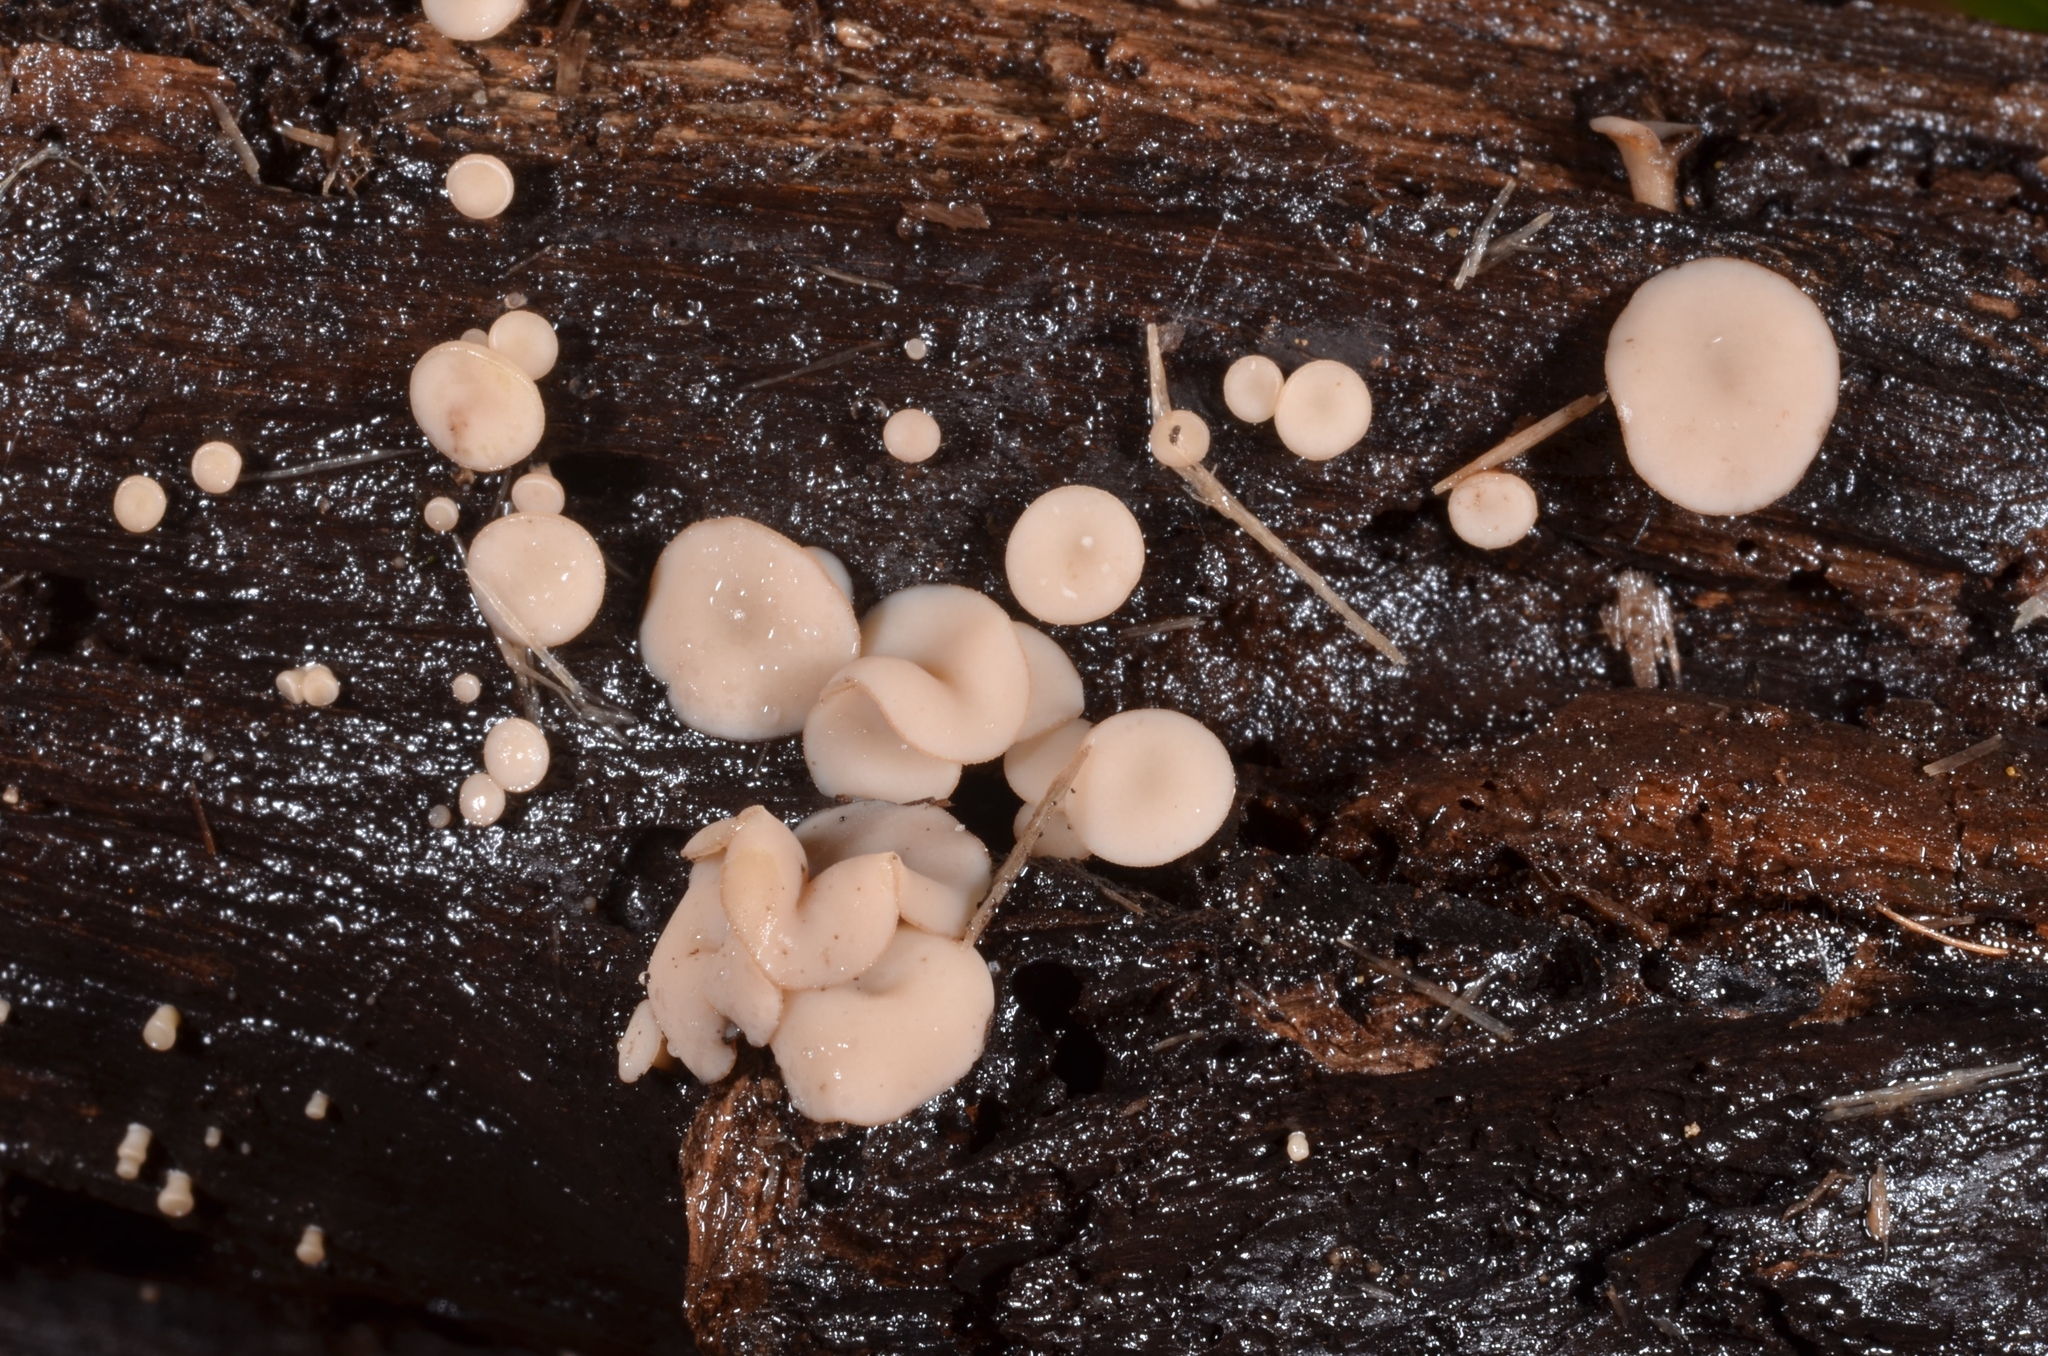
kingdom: Fungi
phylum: Ascomycota
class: Leotiomycetes
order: Helotiales
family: Helotiaceae
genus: Tatraea
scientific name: Tatraea macrospora
